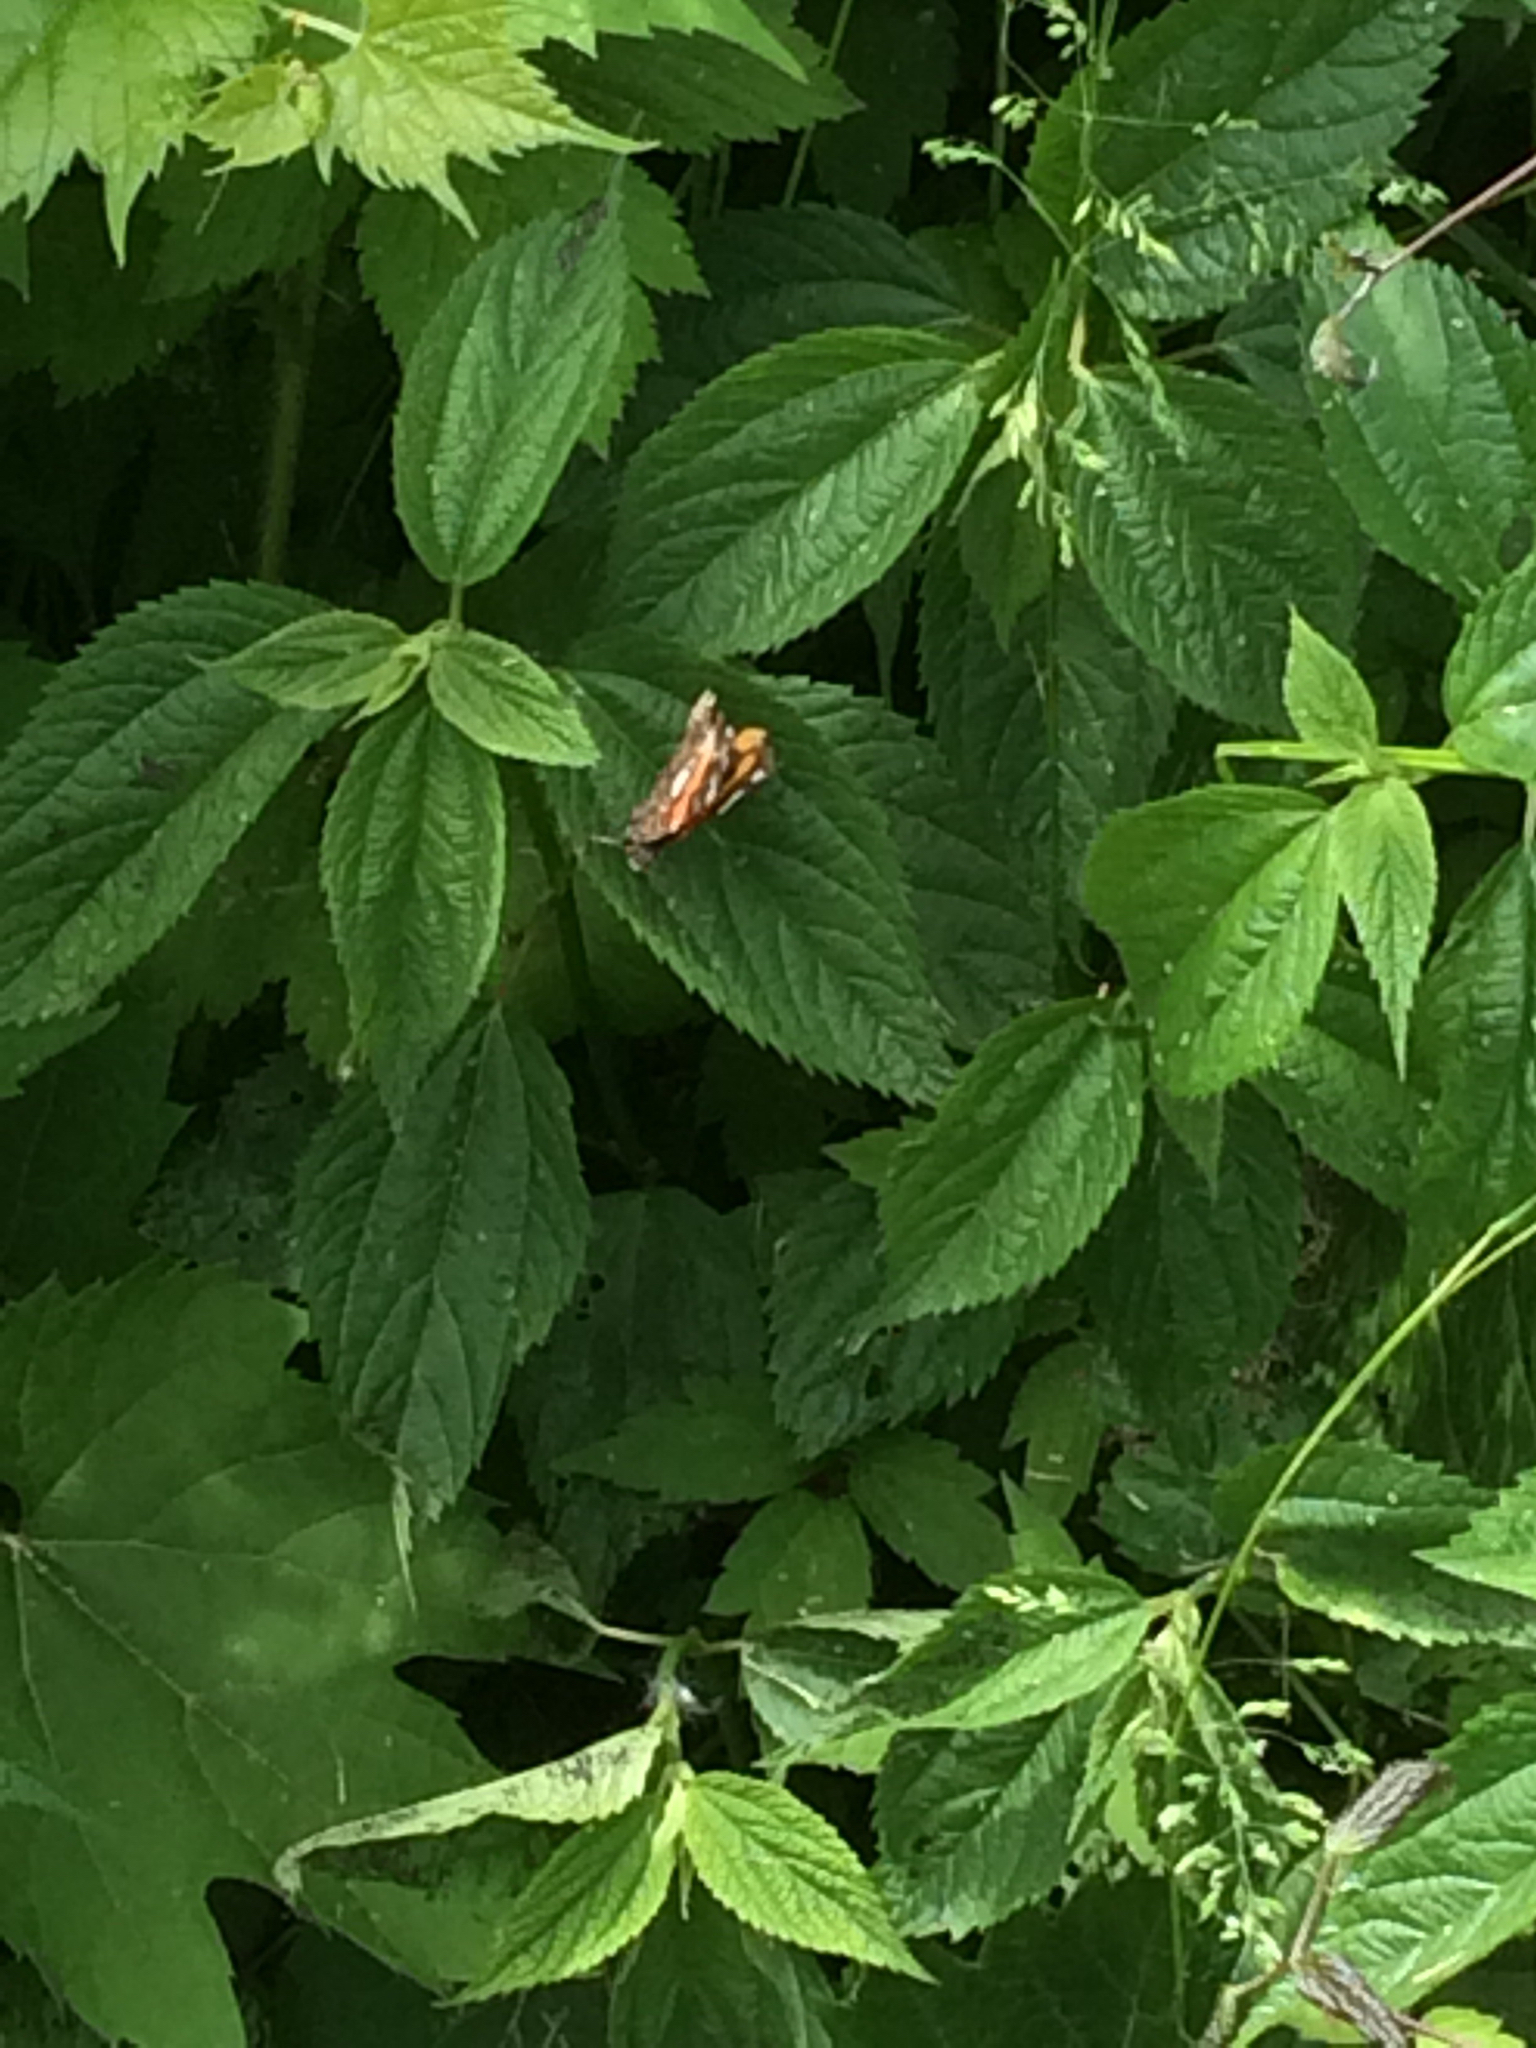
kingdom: Animalia
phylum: Arthropoda
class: Insecta
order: Lepidoptera
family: Nymphalidae
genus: Vanessa
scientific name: Vanessa atalanta
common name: Red admiral
